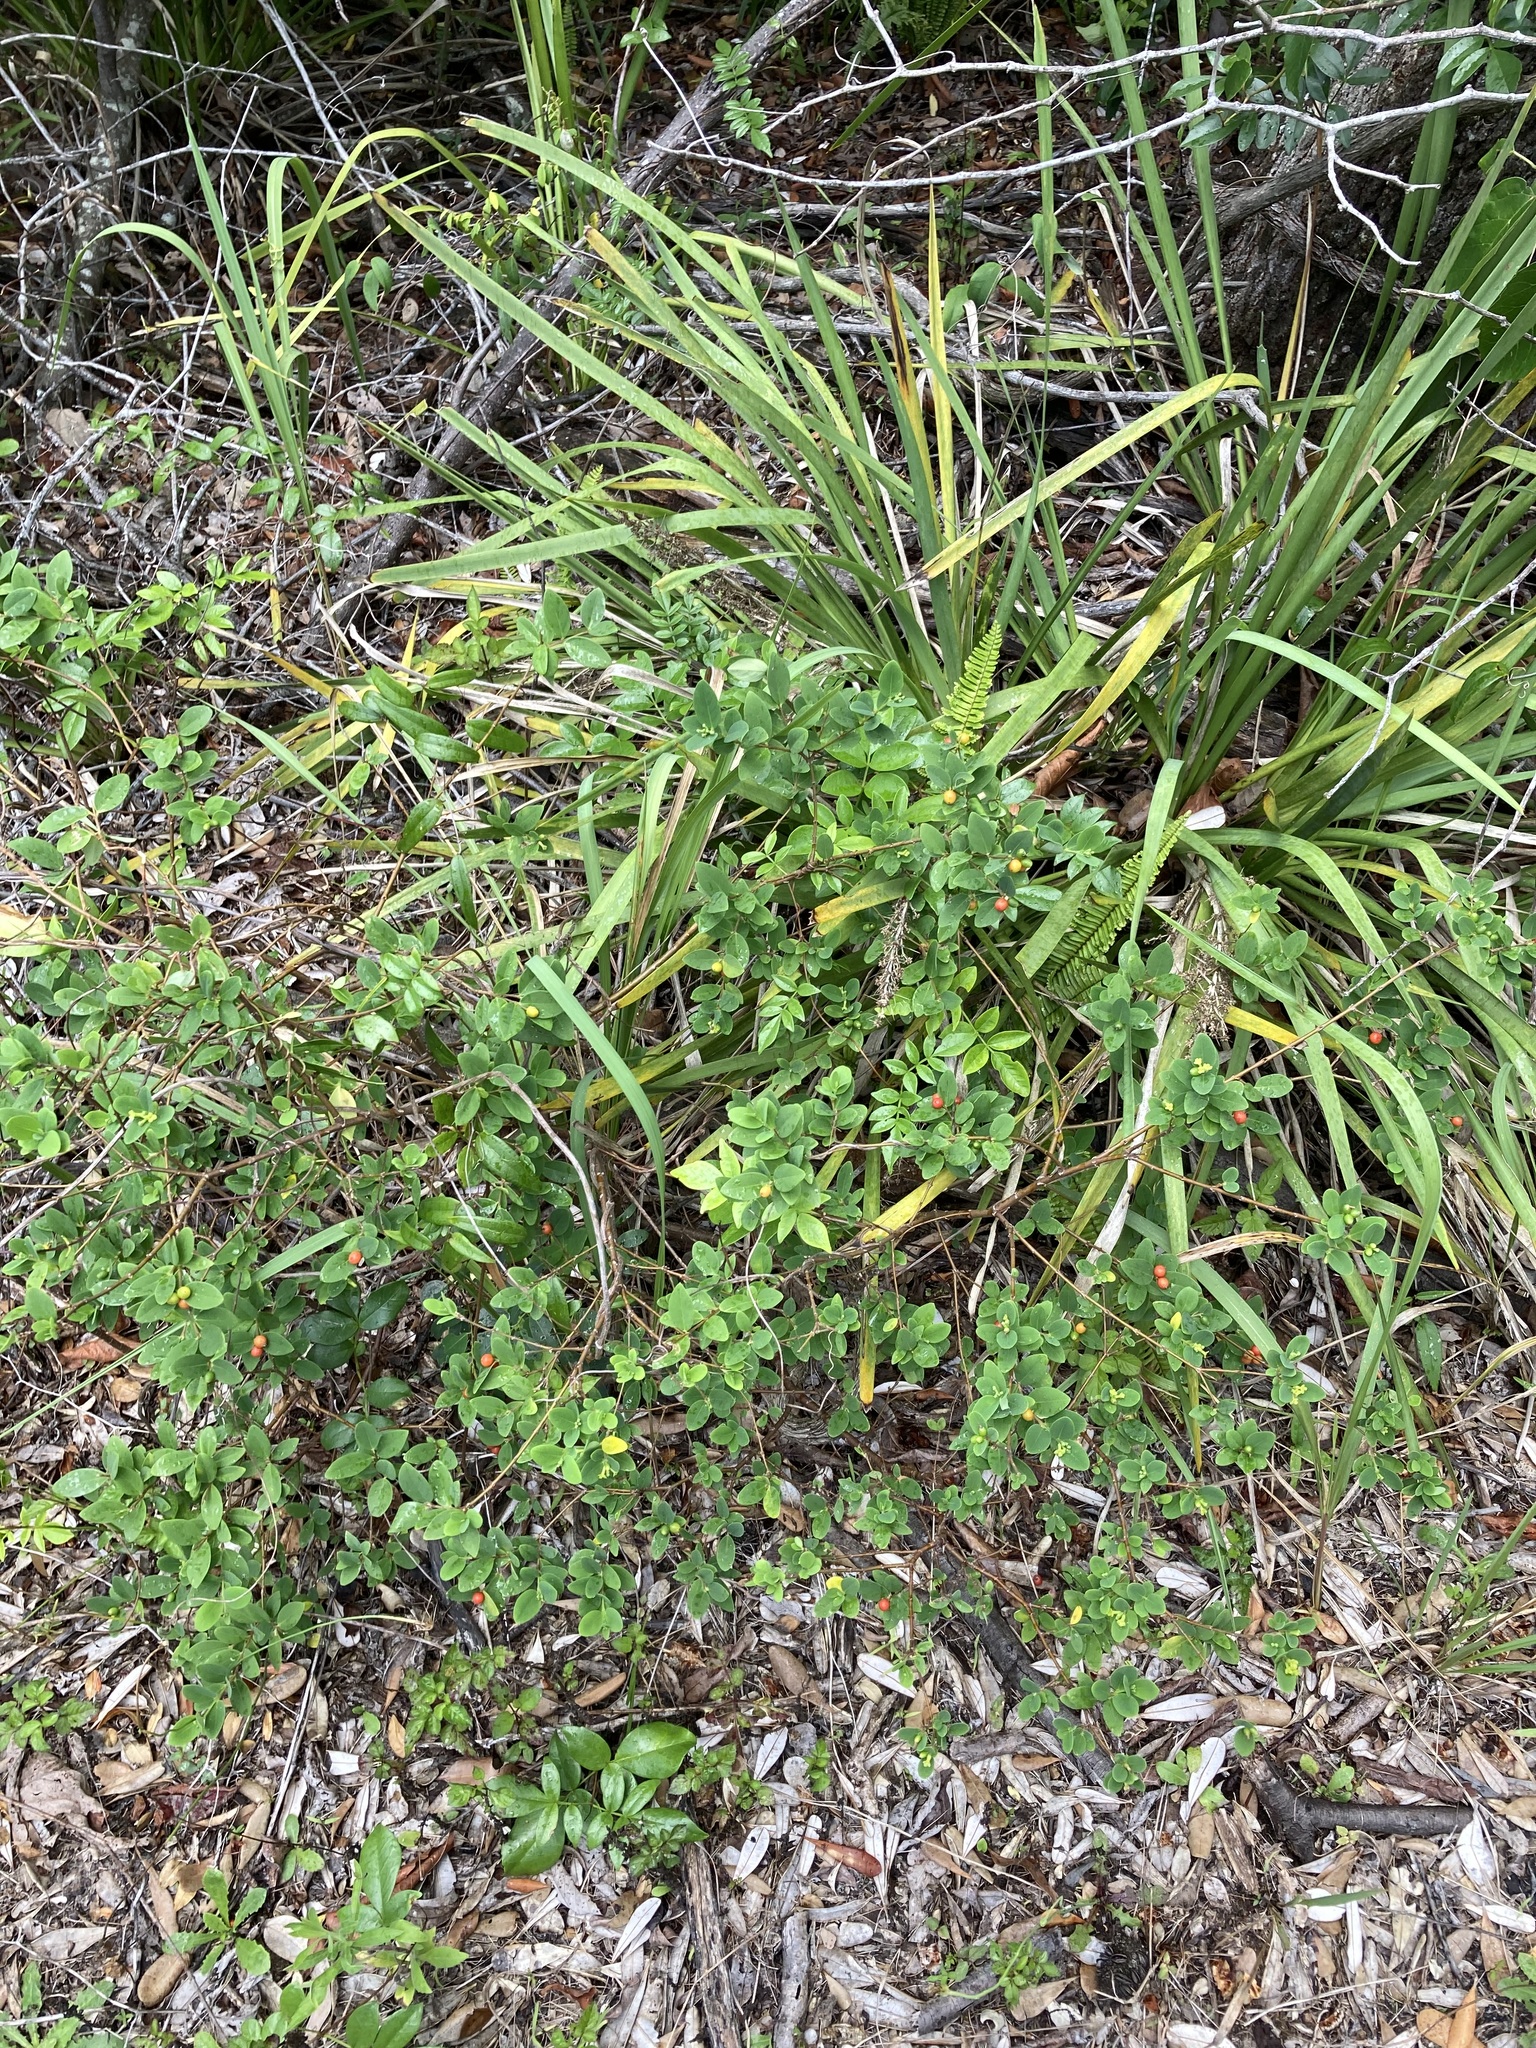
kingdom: Plantae
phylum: Tracheophyta
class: Magnoliopsida
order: Malvales
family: Thymelaeaceae
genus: Wikstroemia
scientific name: Wikstroemia indica
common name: Tiebush
